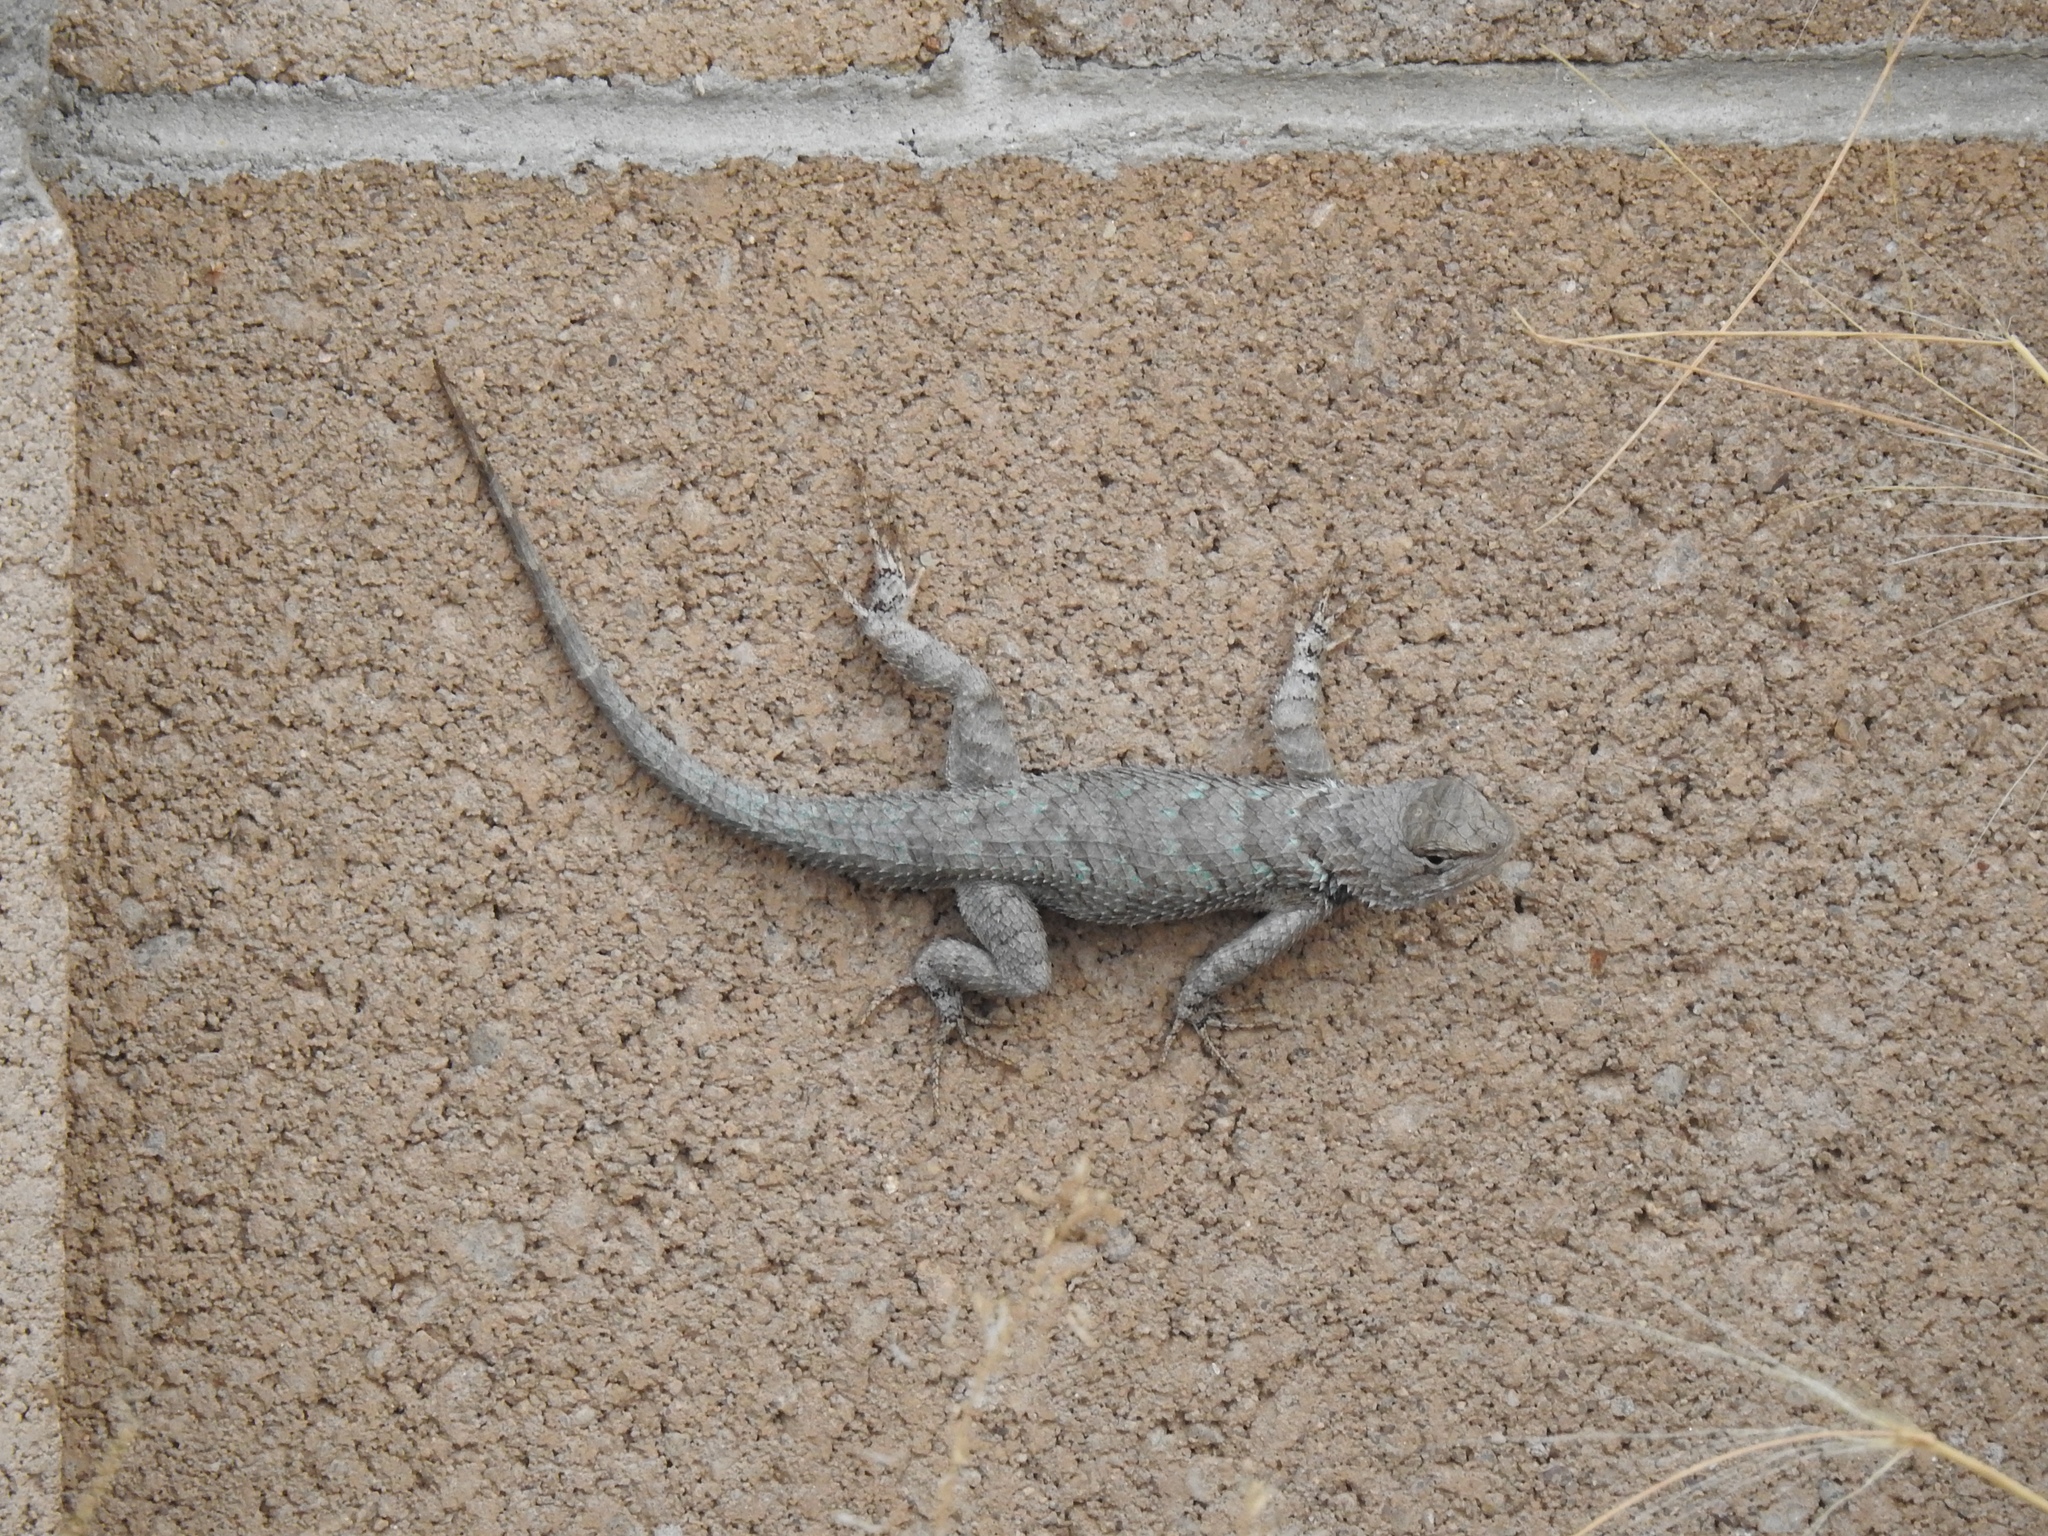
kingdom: Animalia
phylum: Chordata
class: Squamata
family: Phrynosomatidae
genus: Sceloporus
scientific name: Sceloporus clarkii
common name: Clark's spiny lizard
